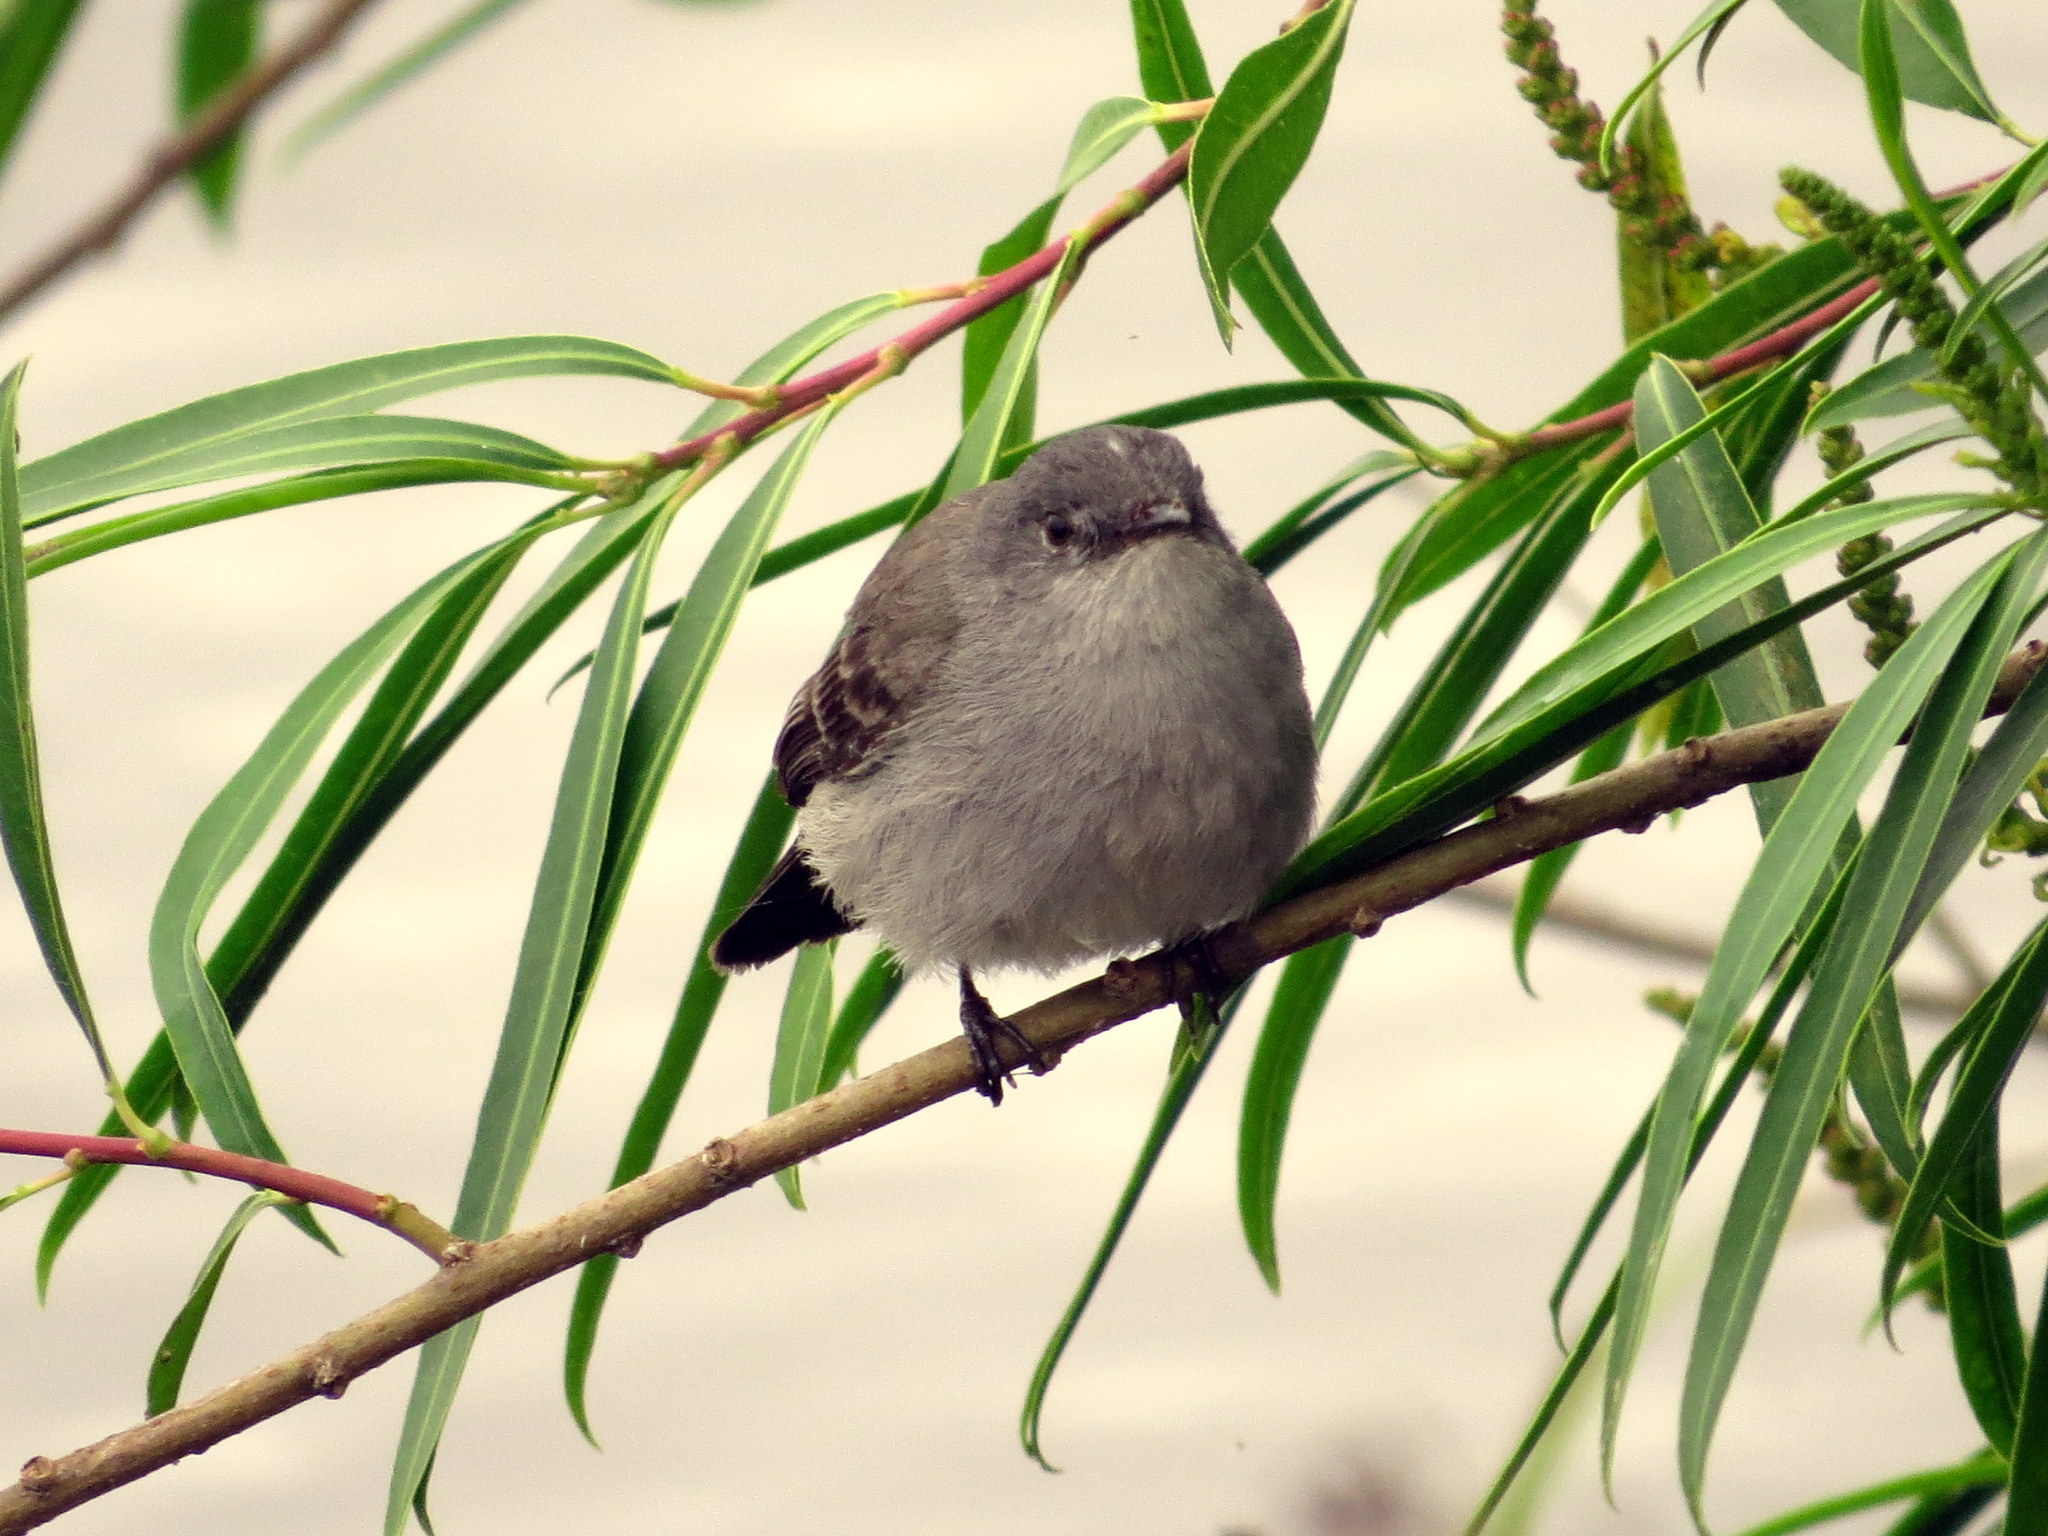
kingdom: Animalia
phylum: Chordata
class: Aves
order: Passeriformes
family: Tyrannidae
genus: Serpophaga
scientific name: Serpophaga nigricans
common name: Sooty tyrannulet
